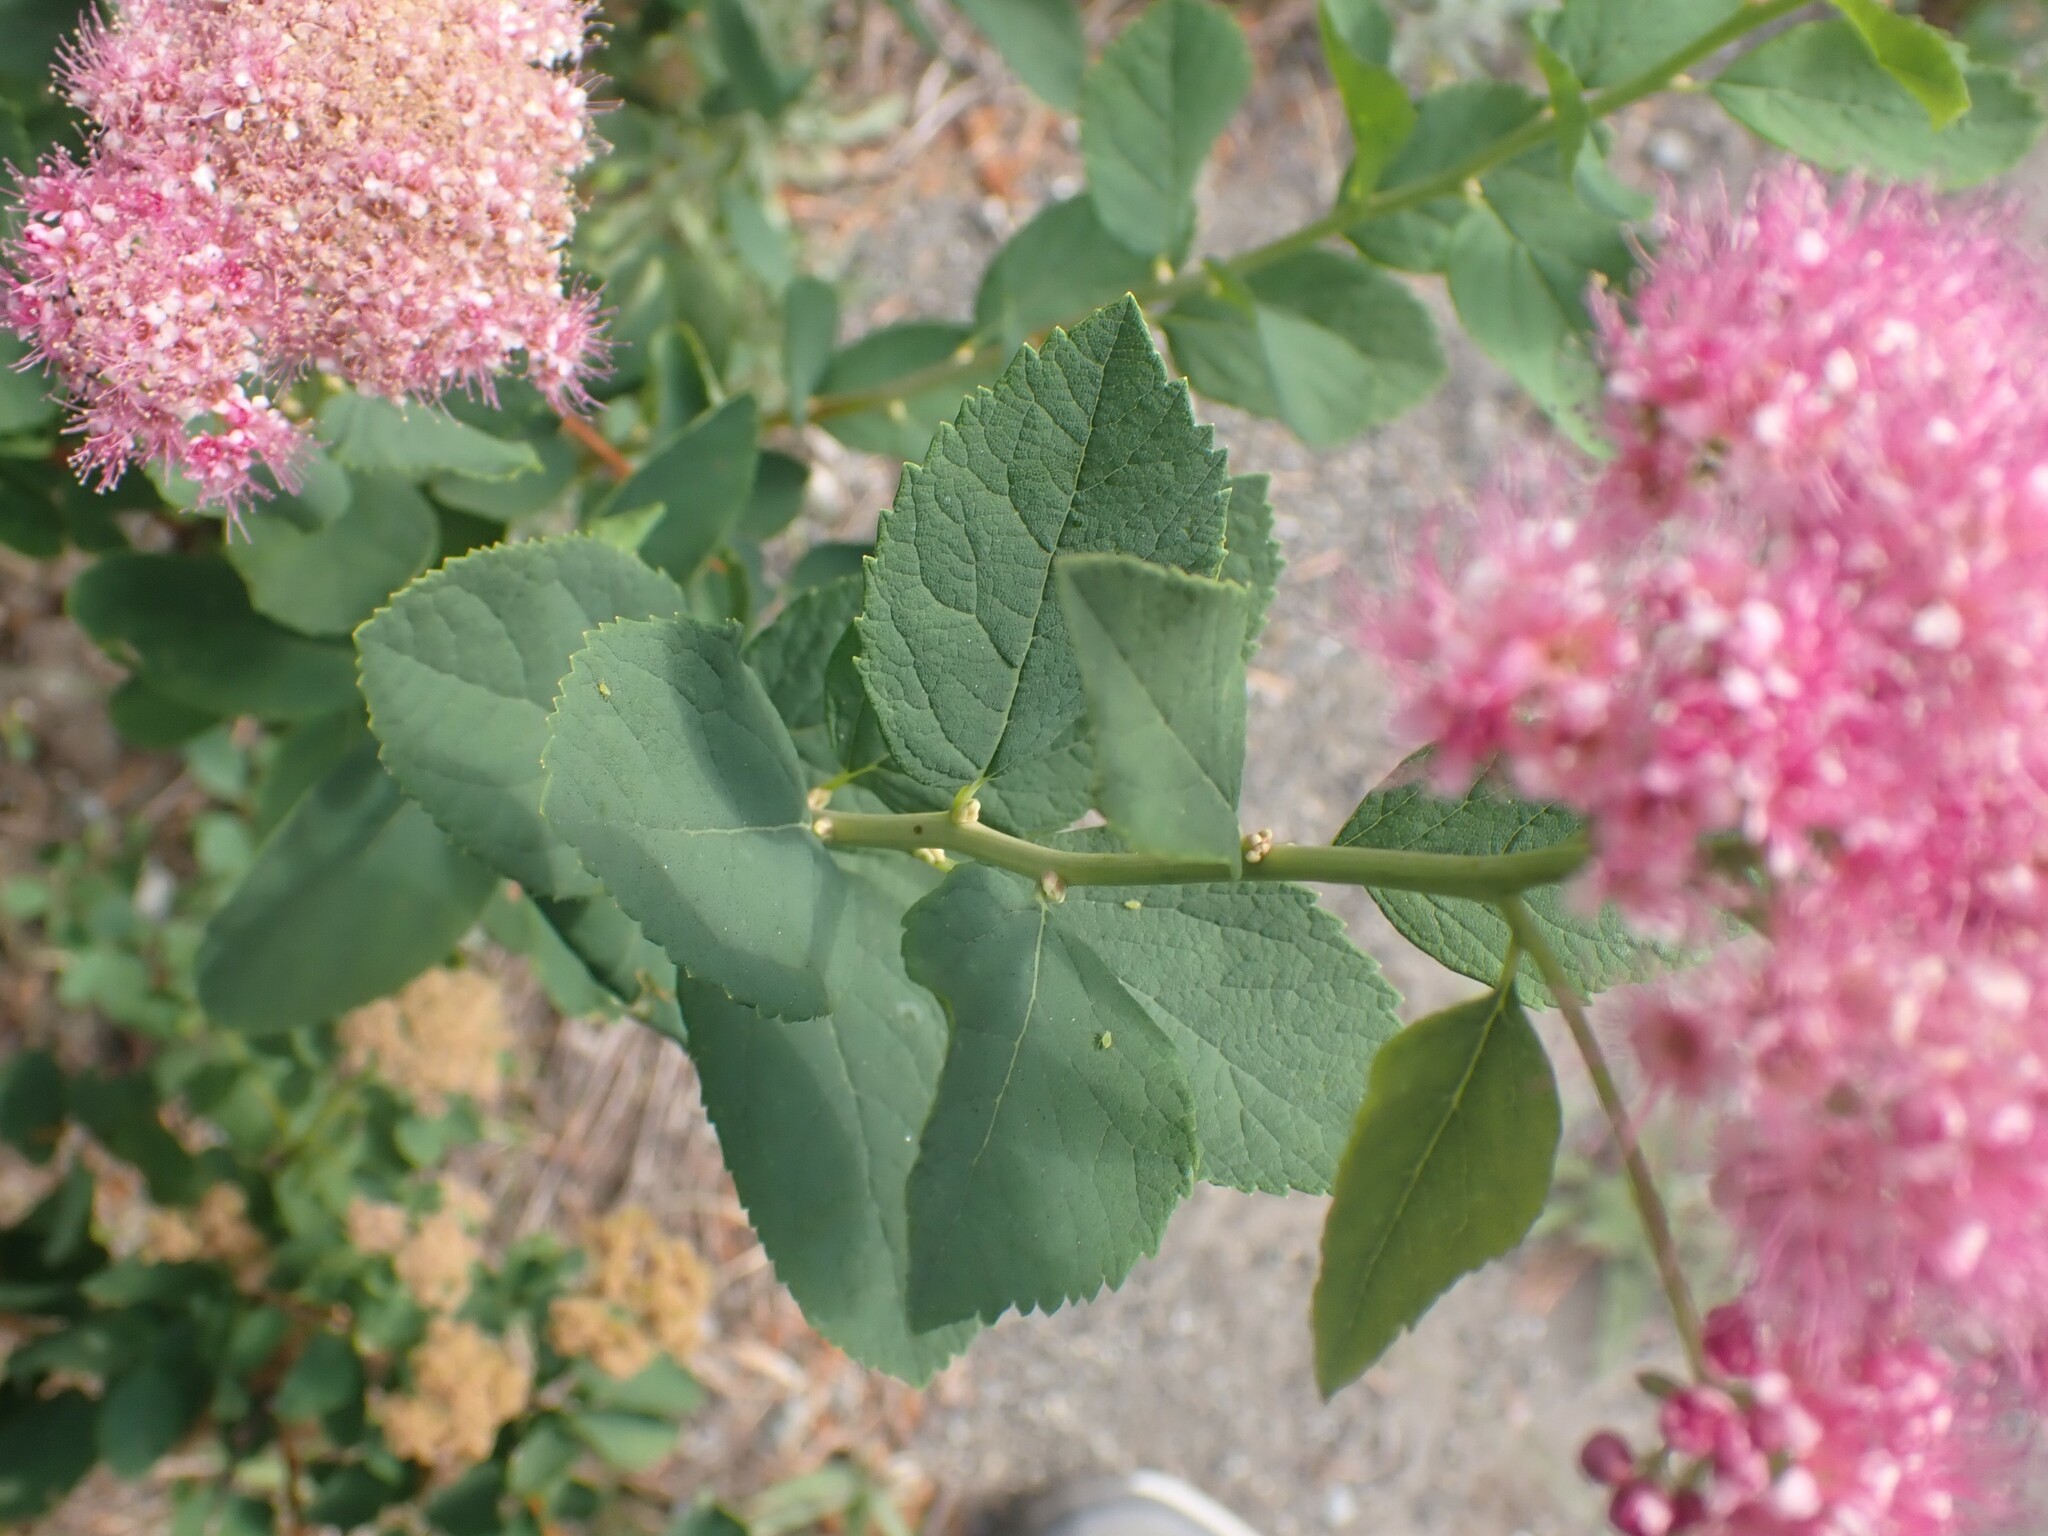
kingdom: Plantae
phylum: Tracheophyta
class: Magnoliopsida
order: Rosales
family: Rosaceae
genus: Spiraea
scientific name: Spiraea splendens
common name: Subalpine meadowsweet
